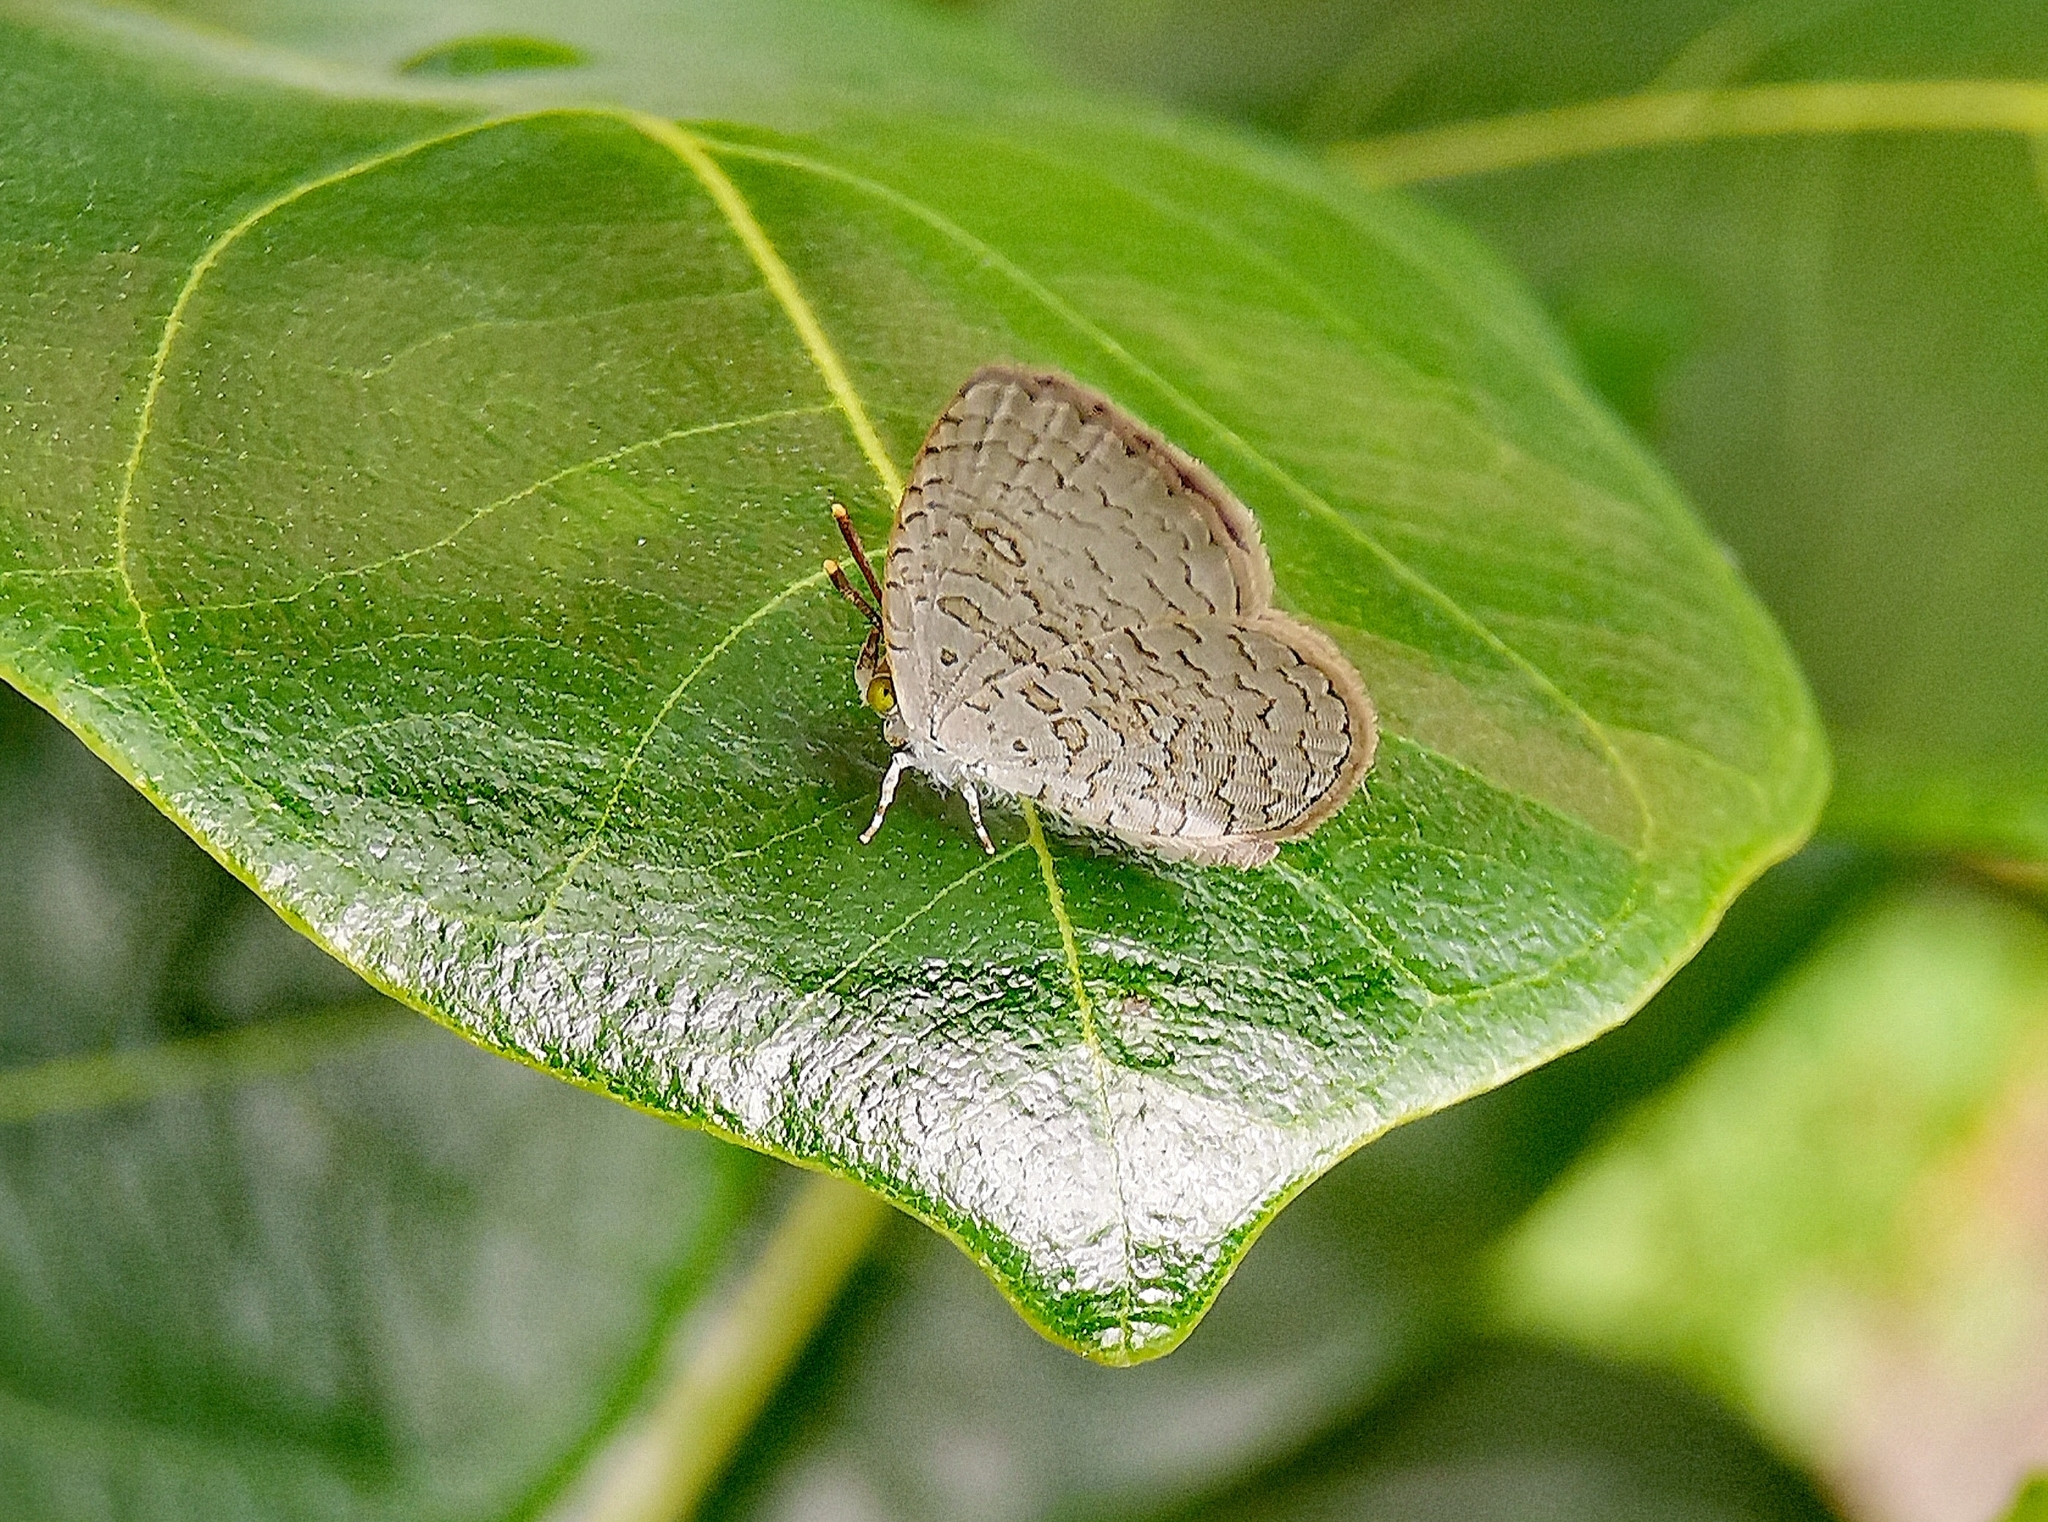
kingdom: Animalia
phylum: Arthropoda
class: Insecta
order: Lepidoptera
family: Lycaenidae
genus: Spalgis
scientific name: Spalgis epius
